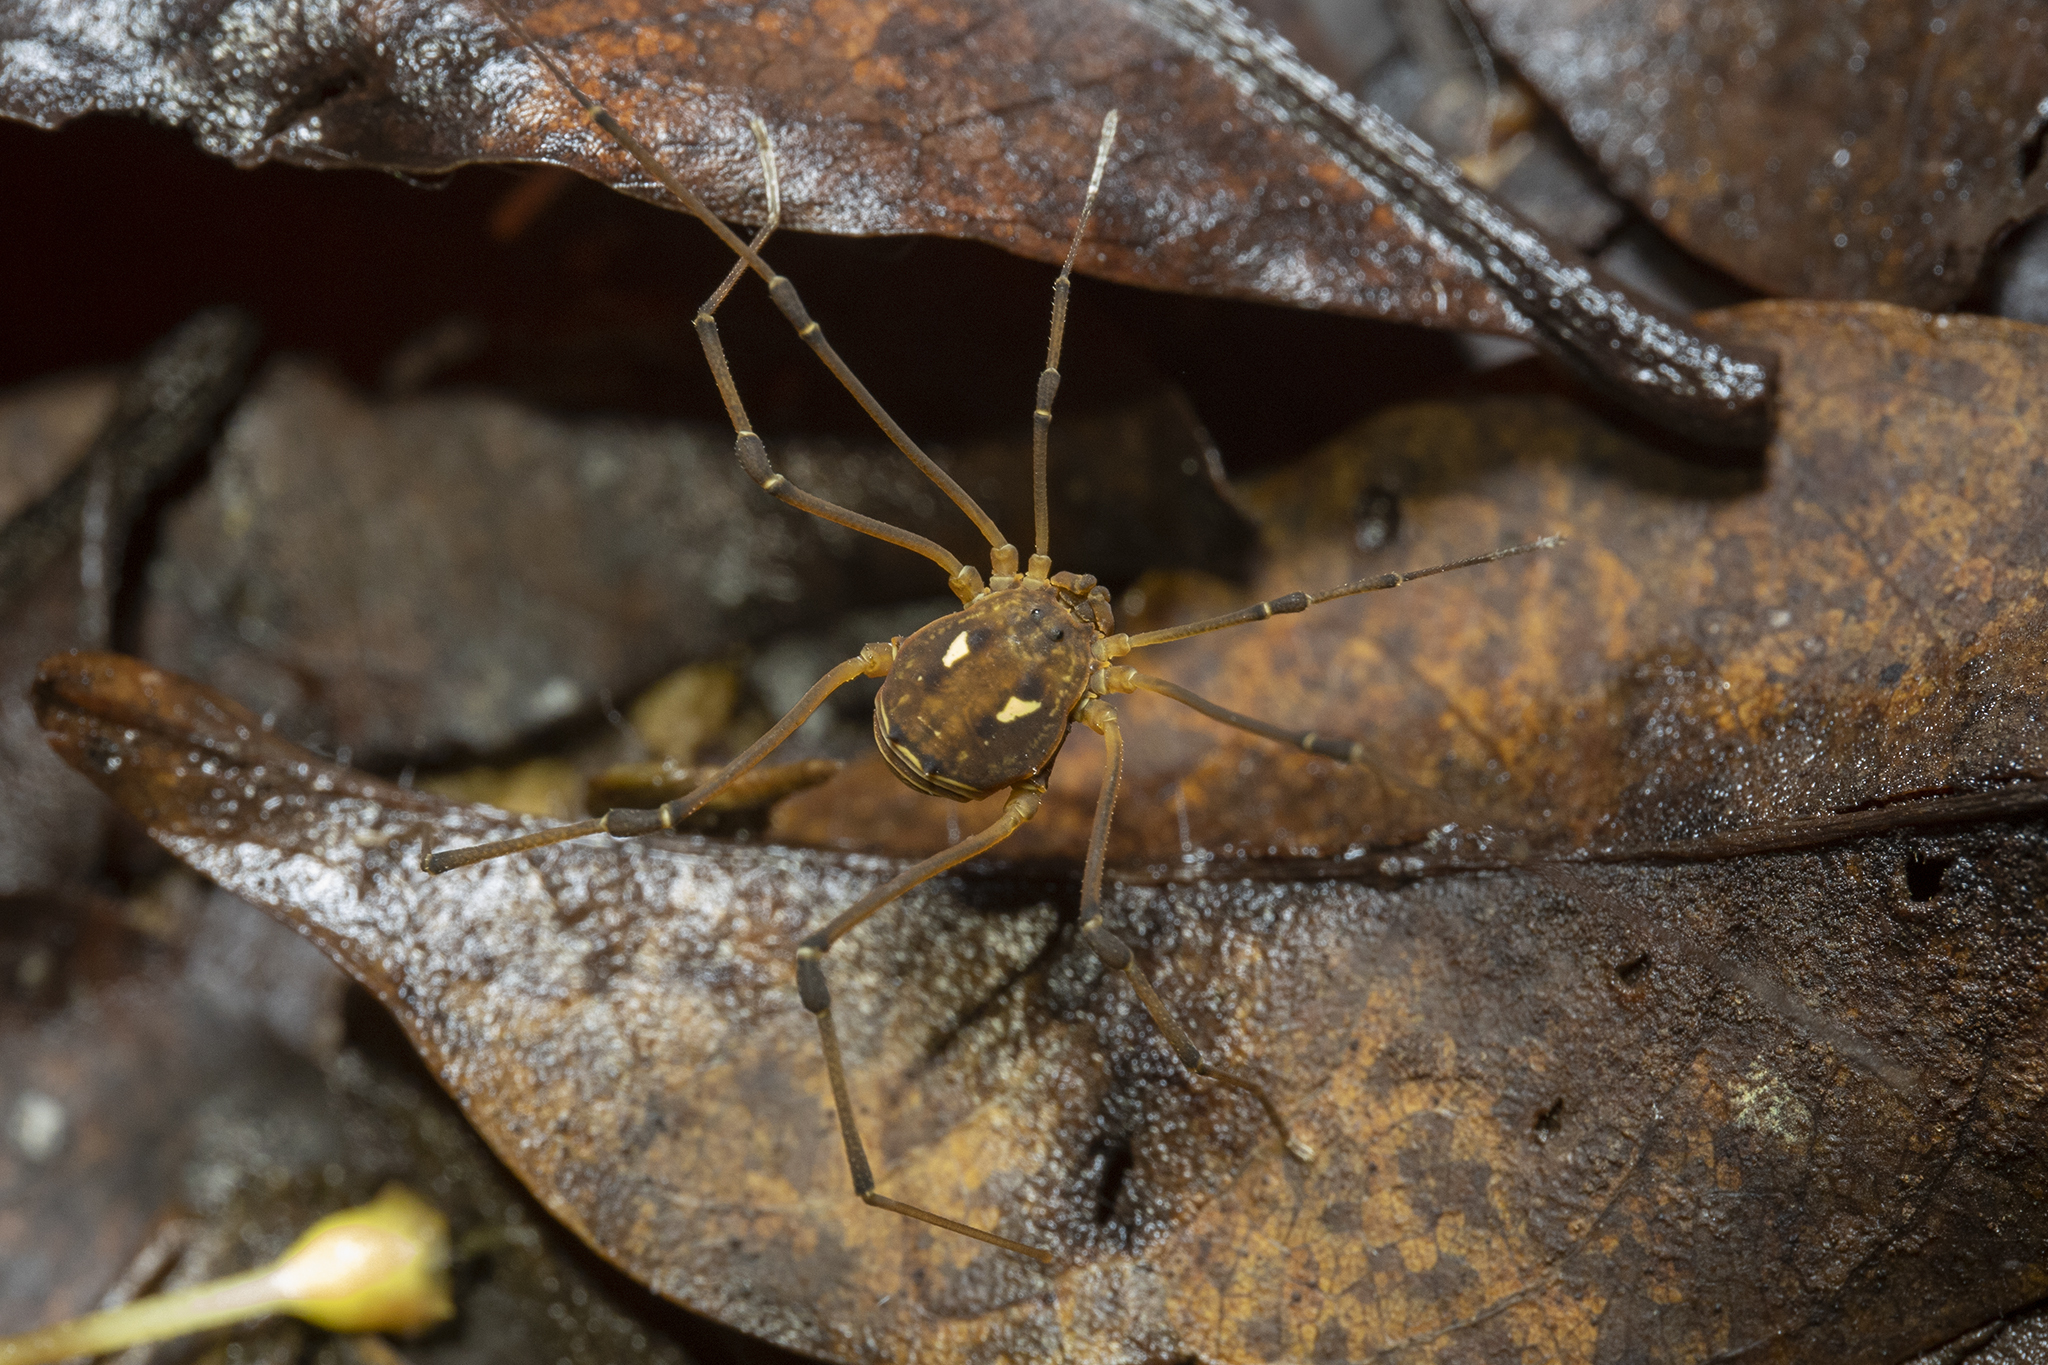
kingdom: Animalia
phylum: Arthropoda
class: Arachnida
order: Opiliones
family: Cosmetidae
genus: Cocholla
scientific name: Cocholla simoni
